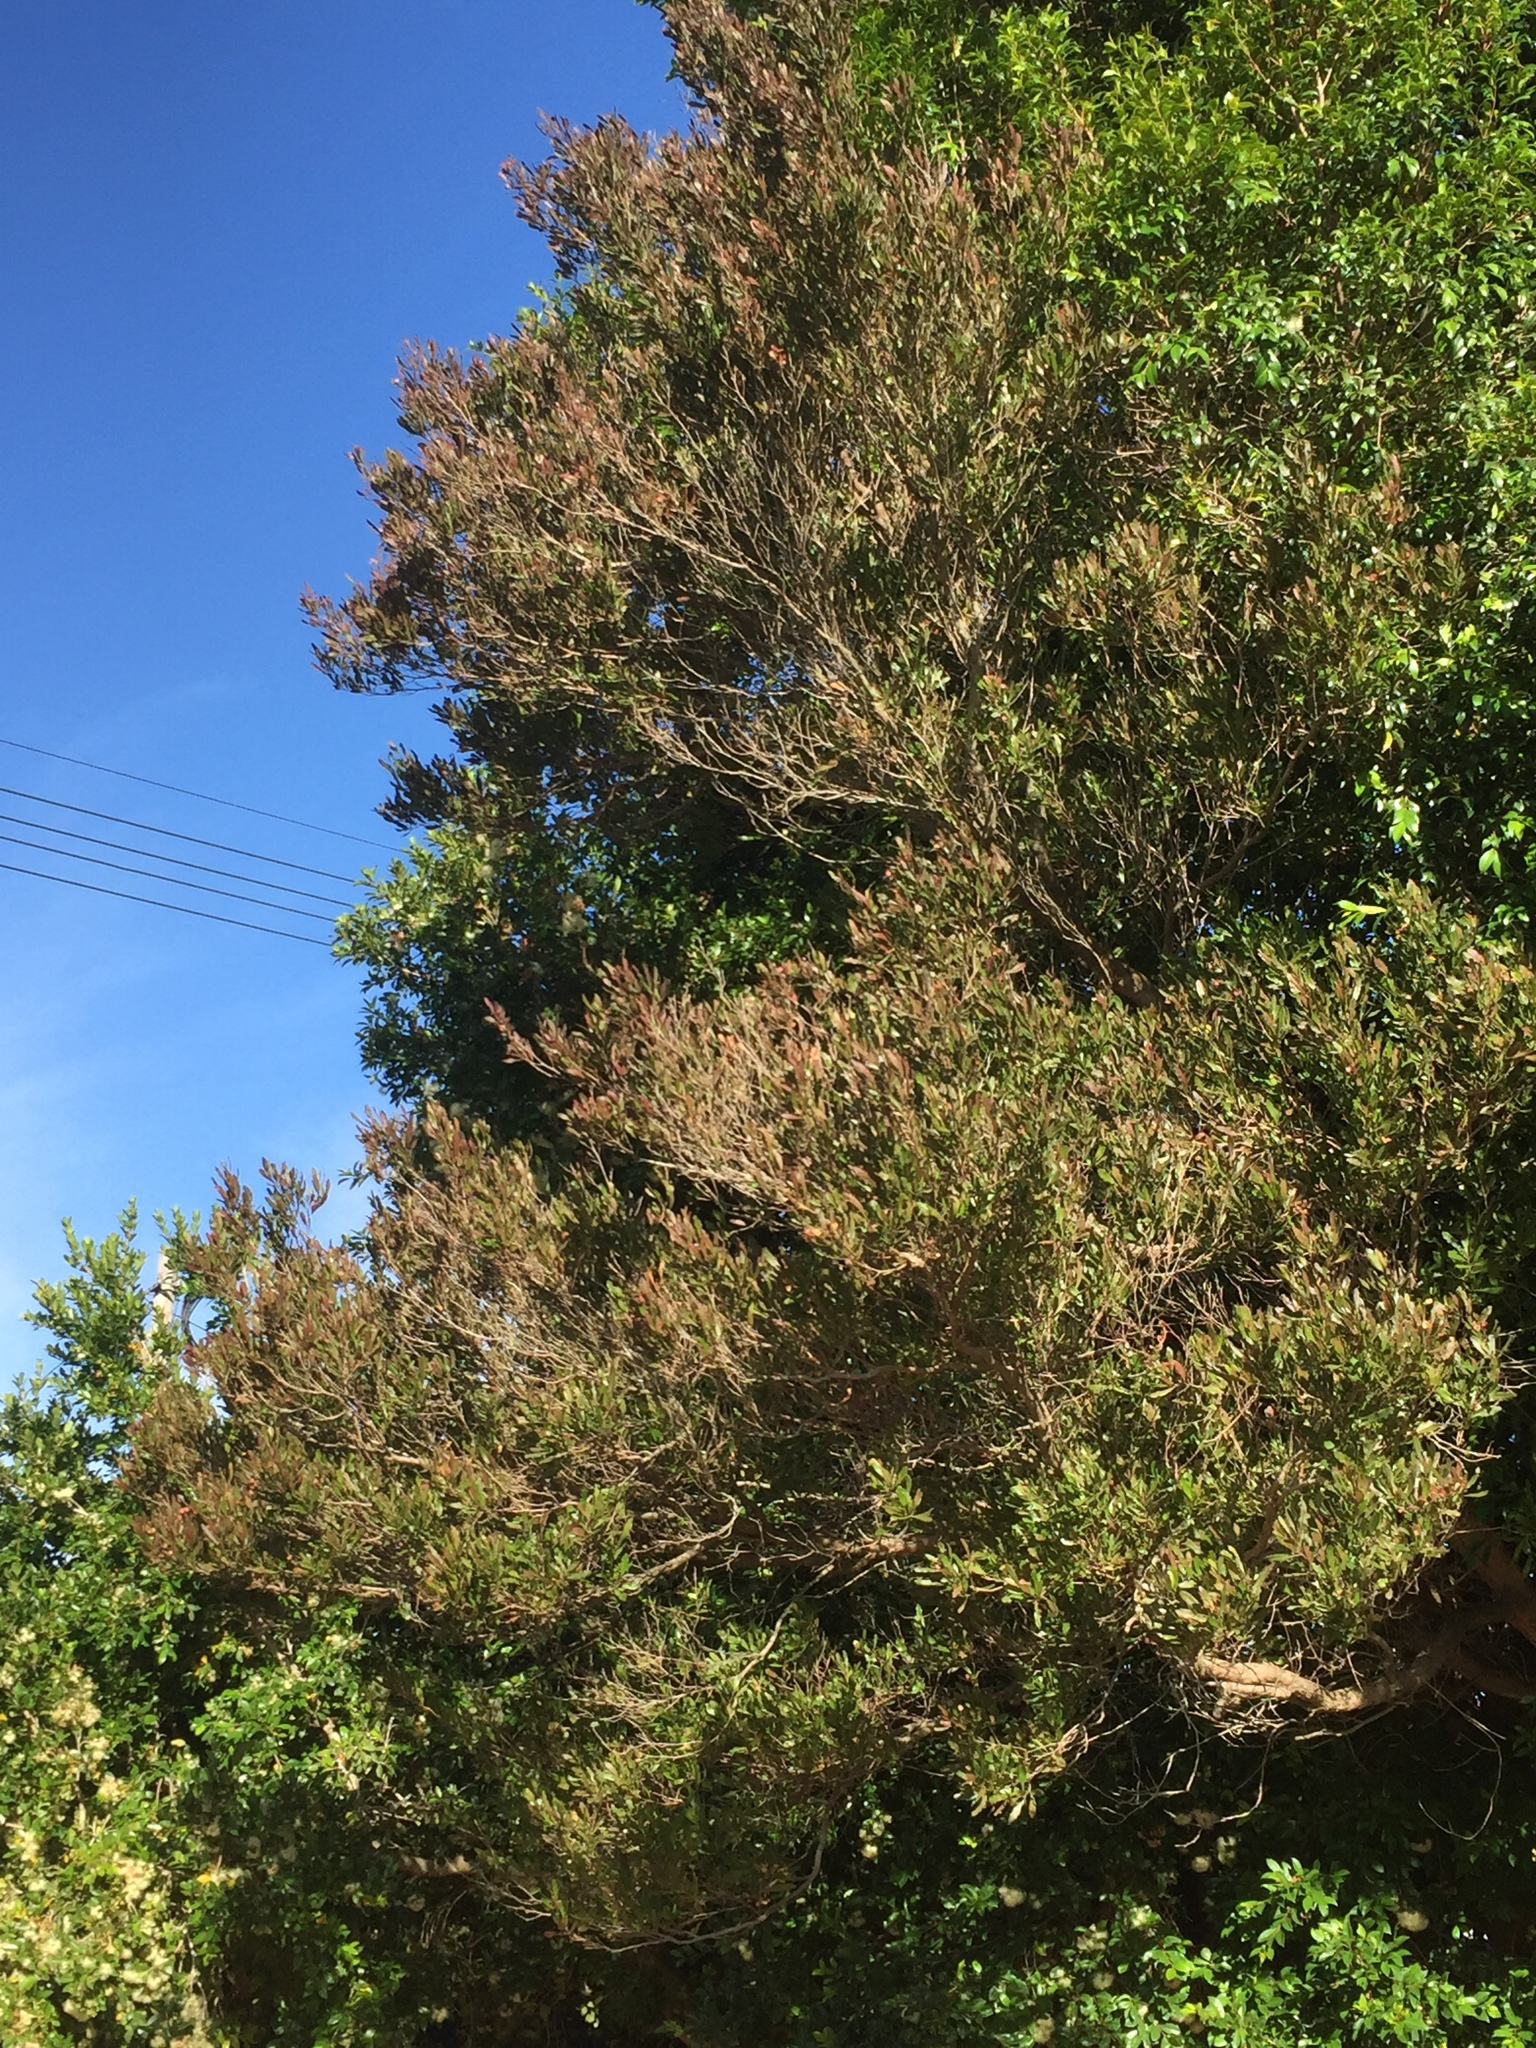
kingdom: Plantae
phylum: Tracheophyta
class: Magnoliopsida
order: Sapindales
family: Sapindaceae
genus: Dodonaea
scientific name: Dodonaea viscosa
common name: Hopbush
